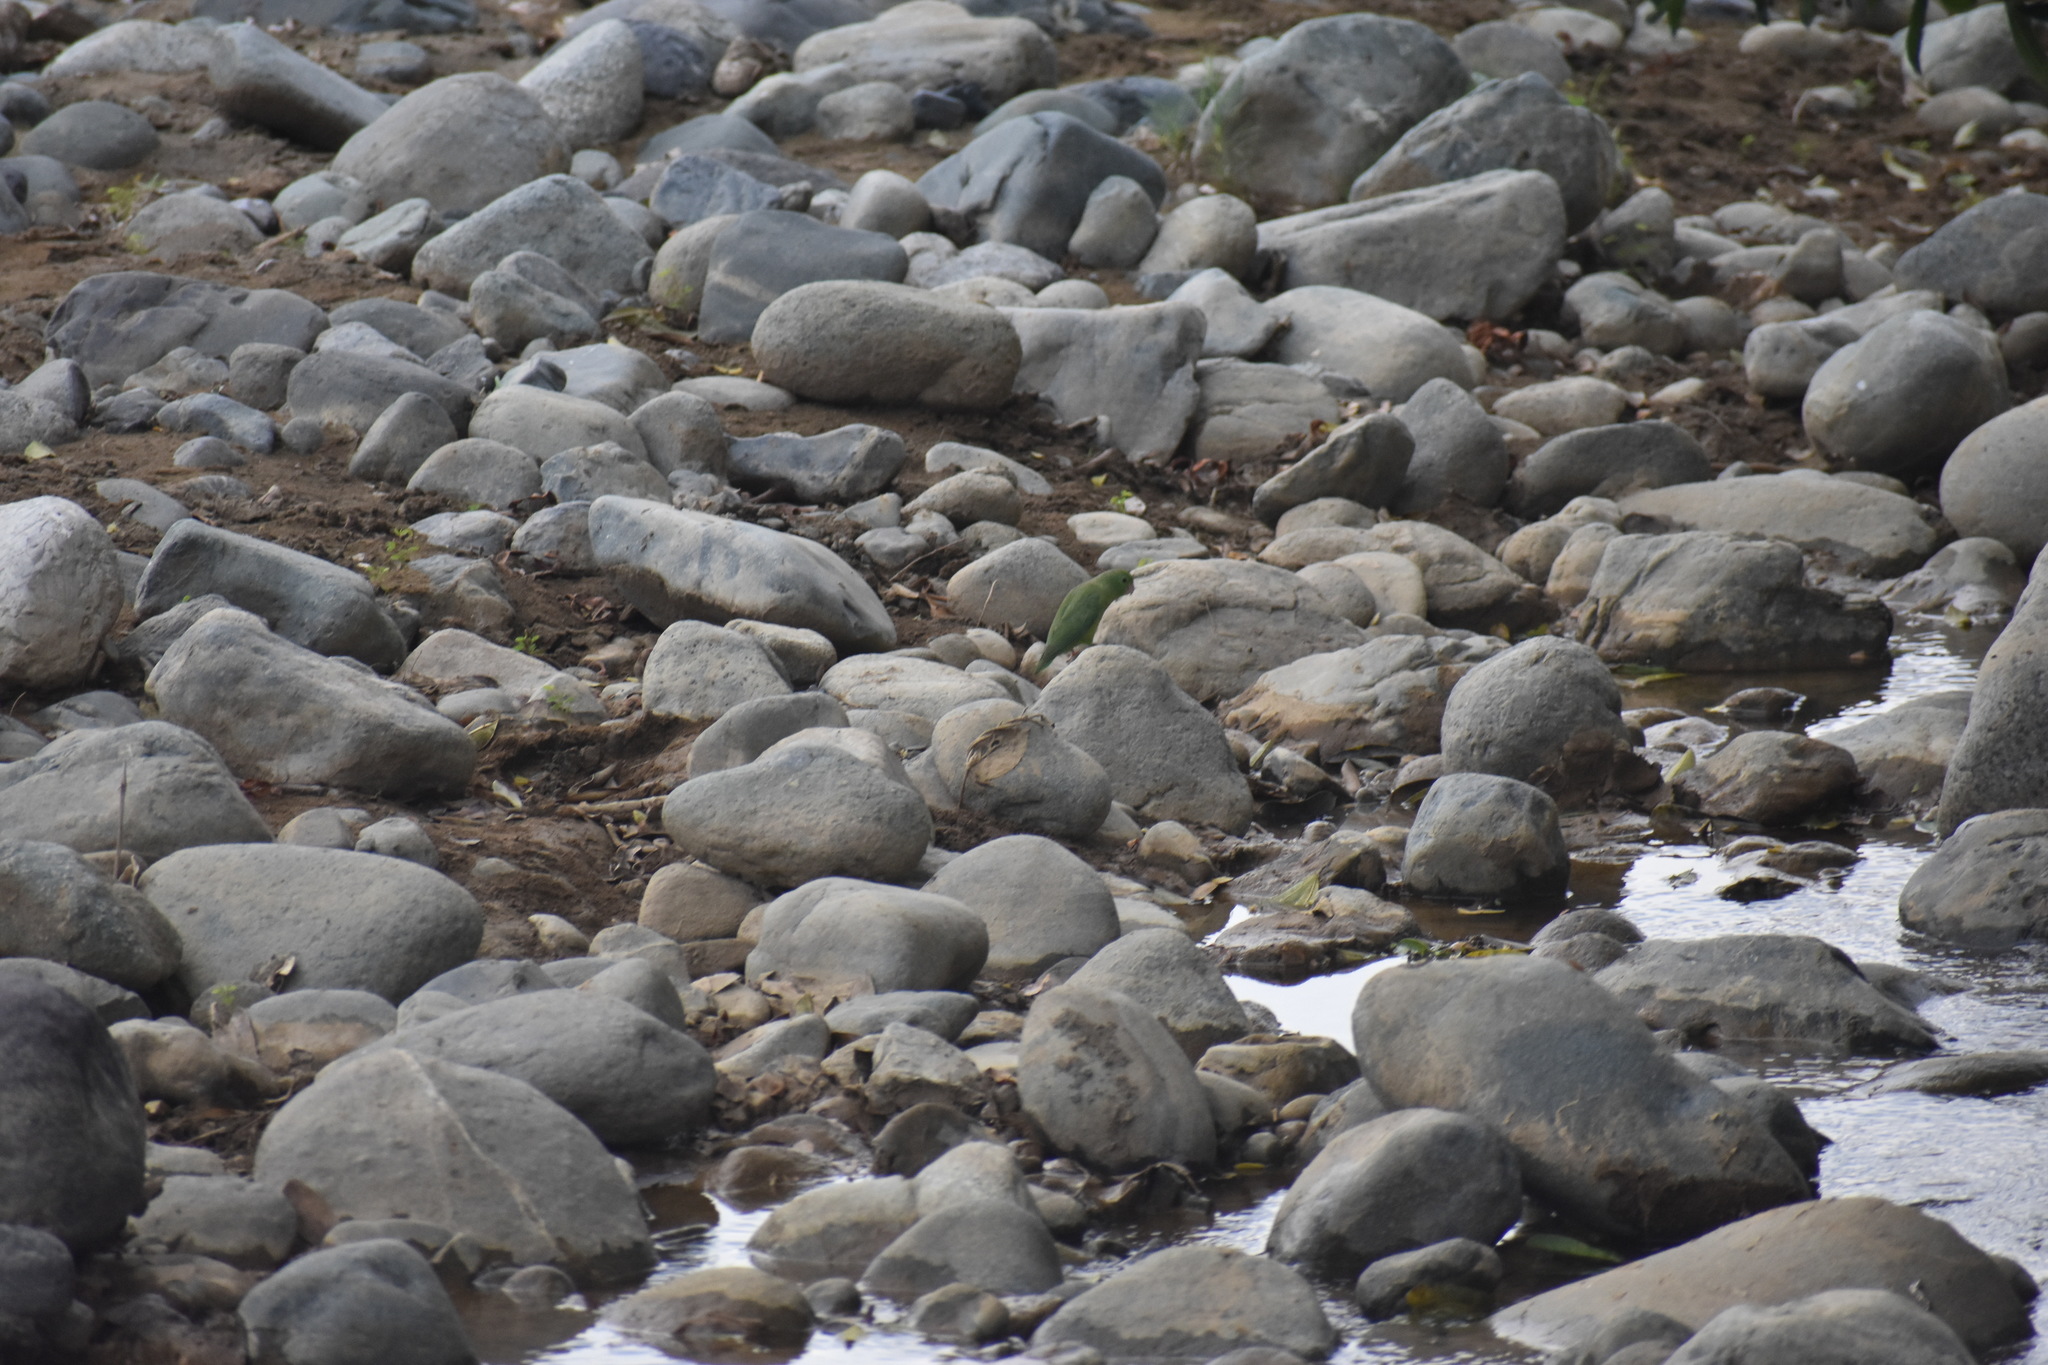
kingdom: Animalia
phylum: Chordata
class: Aves
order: Psittaciformes
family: Psittacidae
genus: Forpus
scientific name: Forpus conspicillatus
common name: Spectacled parrotlet
